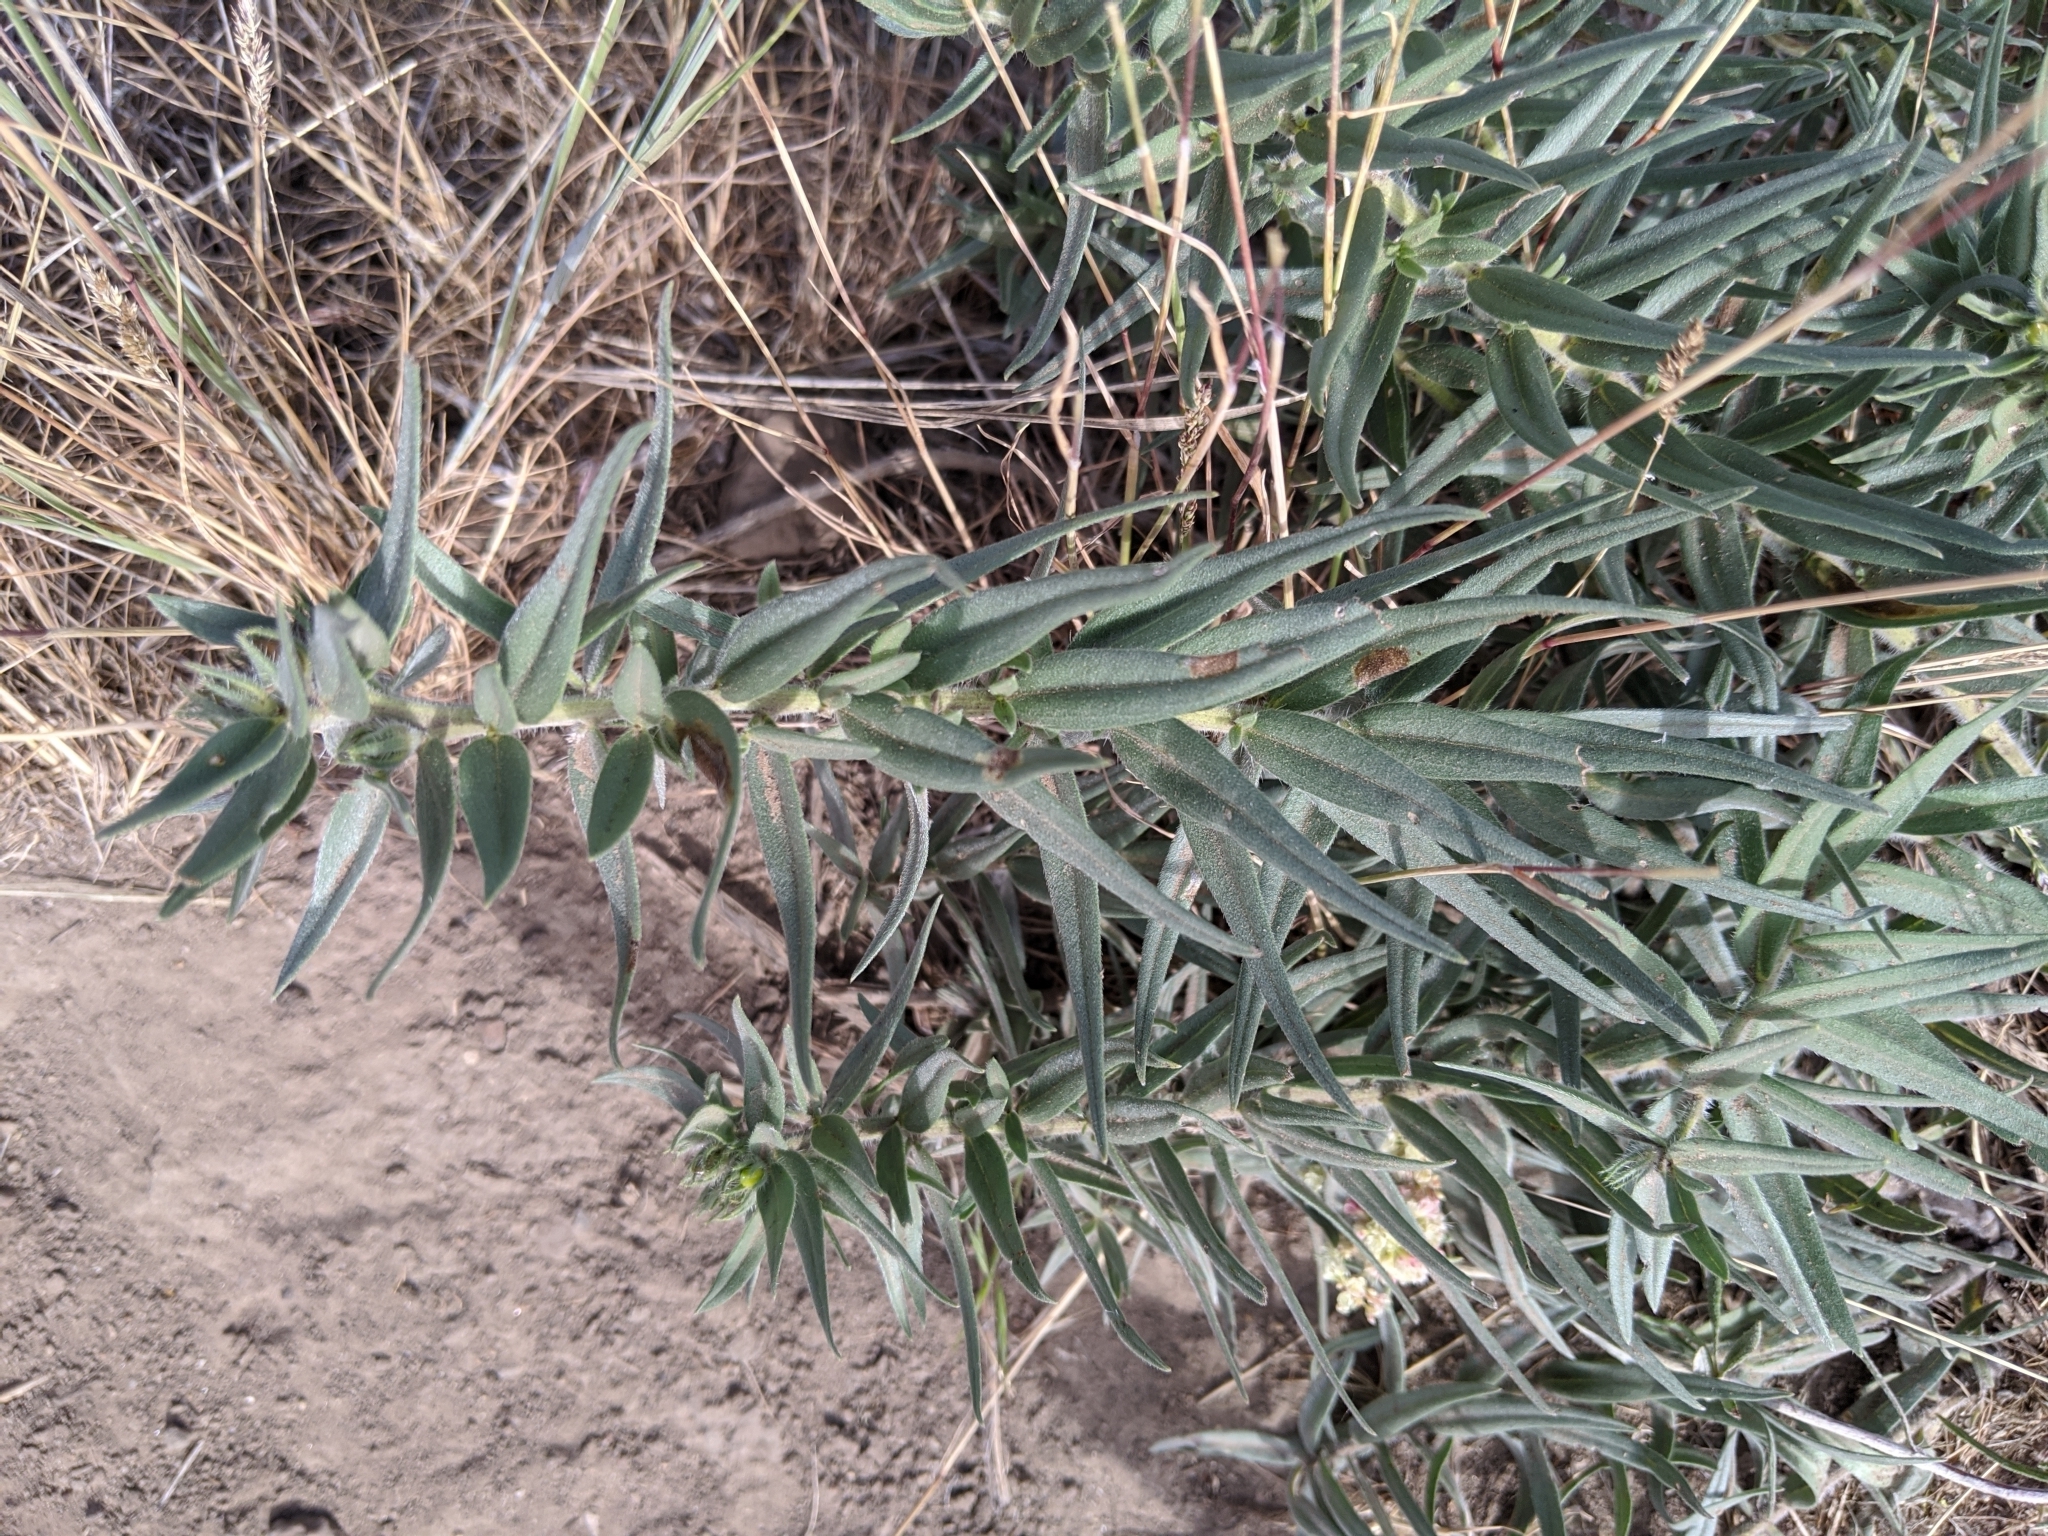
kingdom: Plantae
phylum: Tracheophyta
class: Magnoliopsida
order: Boraginales
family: Boraginaceae
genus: Lithospermum
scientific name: Lithospermum ruderale
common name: Western gromwell
